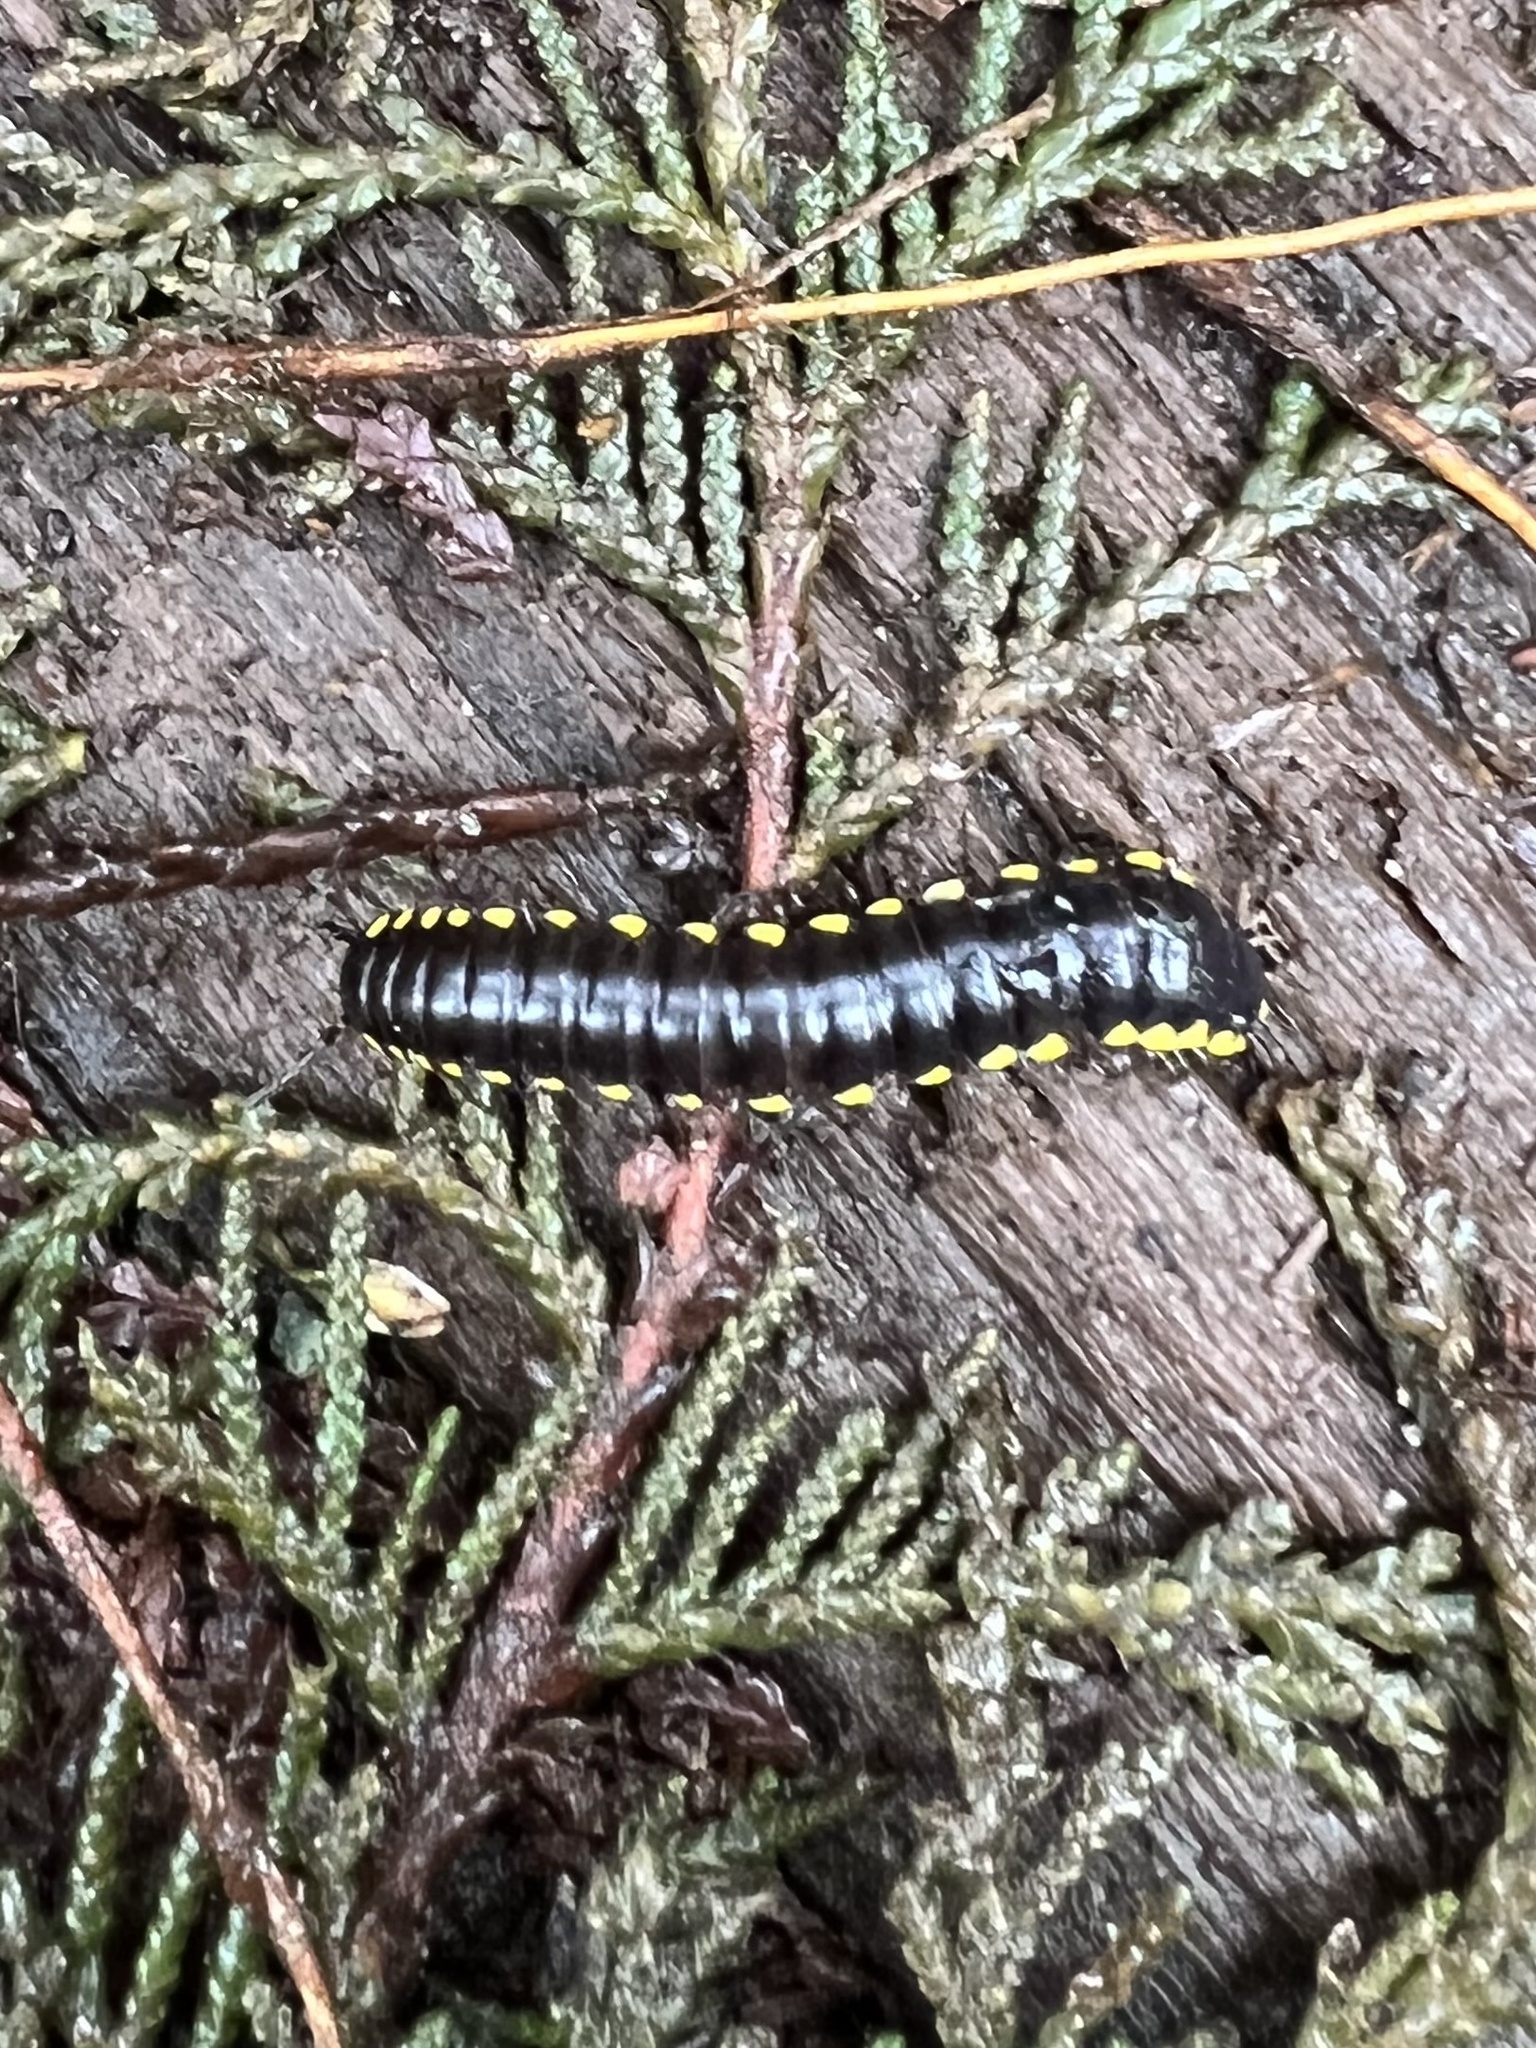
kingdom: Animalia
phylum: Arthropoda
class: Diplopoda
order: Polydesmida
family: Xystodesmidae
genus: Harpaphe
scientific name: Harpaphe haydeniana
